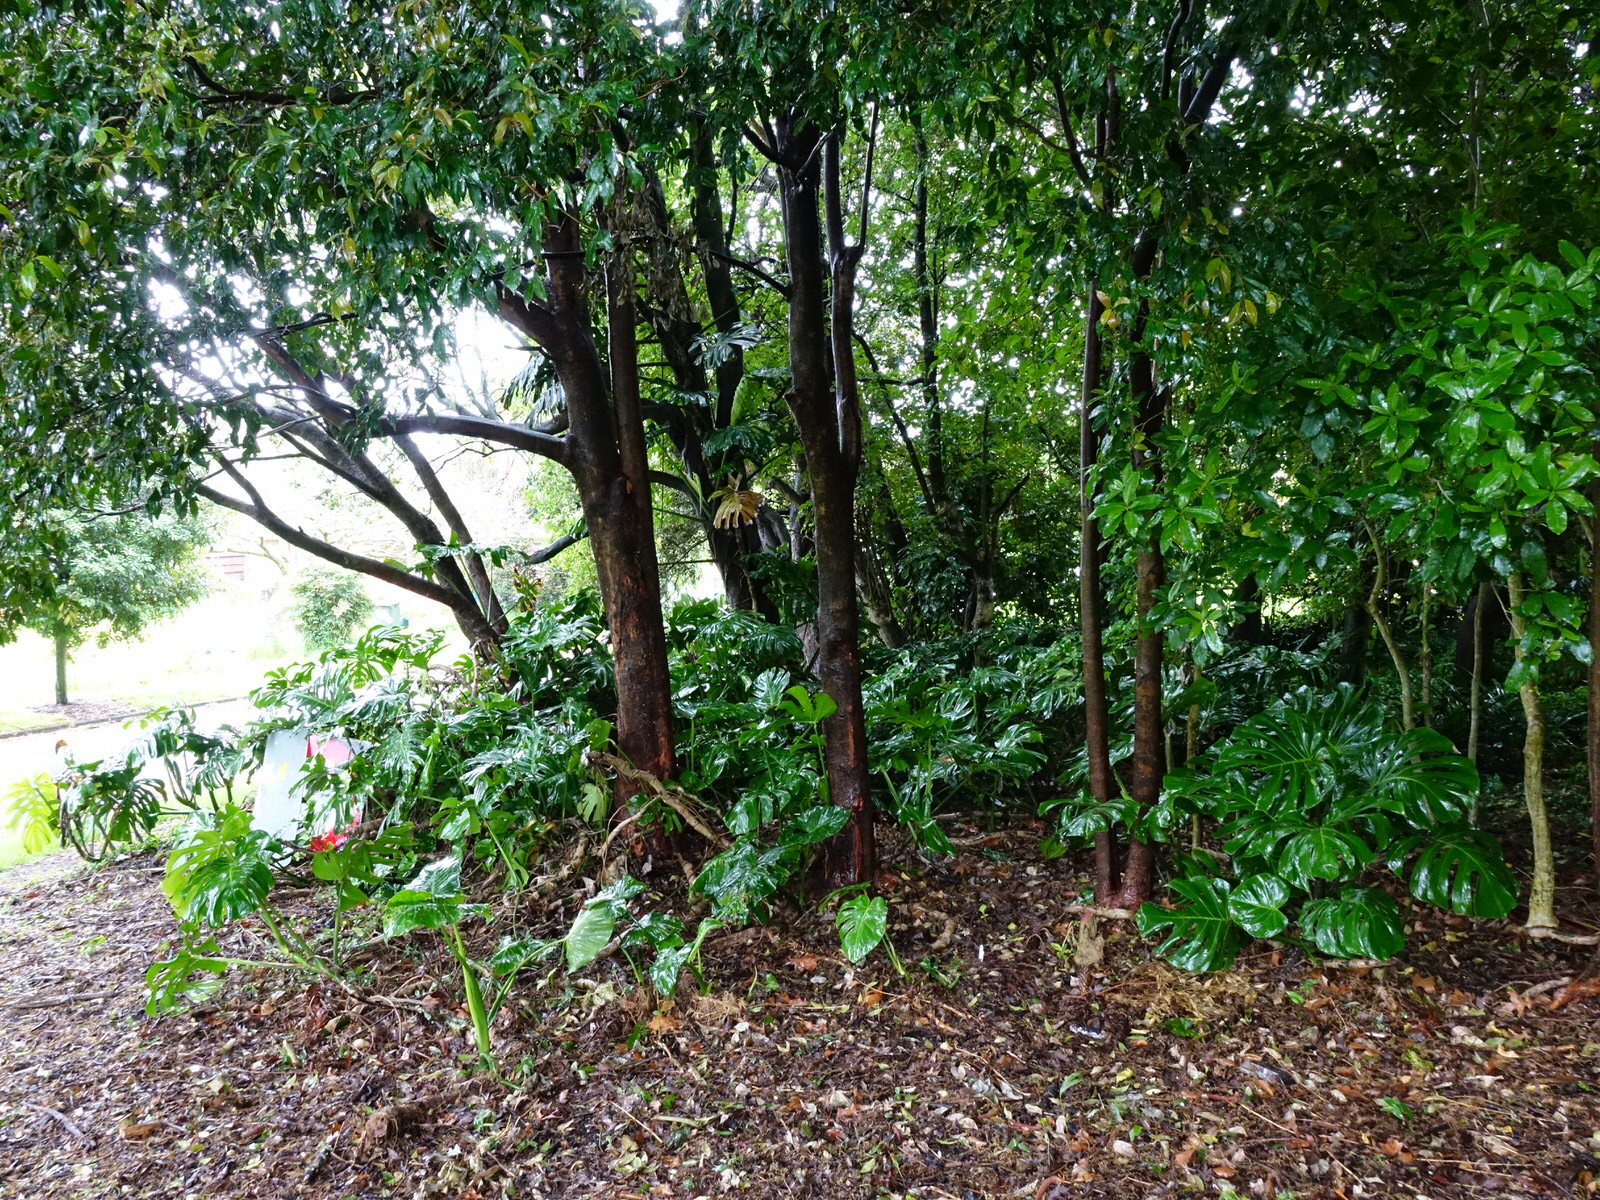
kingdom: Plantae
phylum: Tracheophyta
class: Liliopsida
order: Alismatales
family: Araceae
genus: Monstera
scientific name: Monstera deliciosa
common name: Cut-leaf-philodendron
